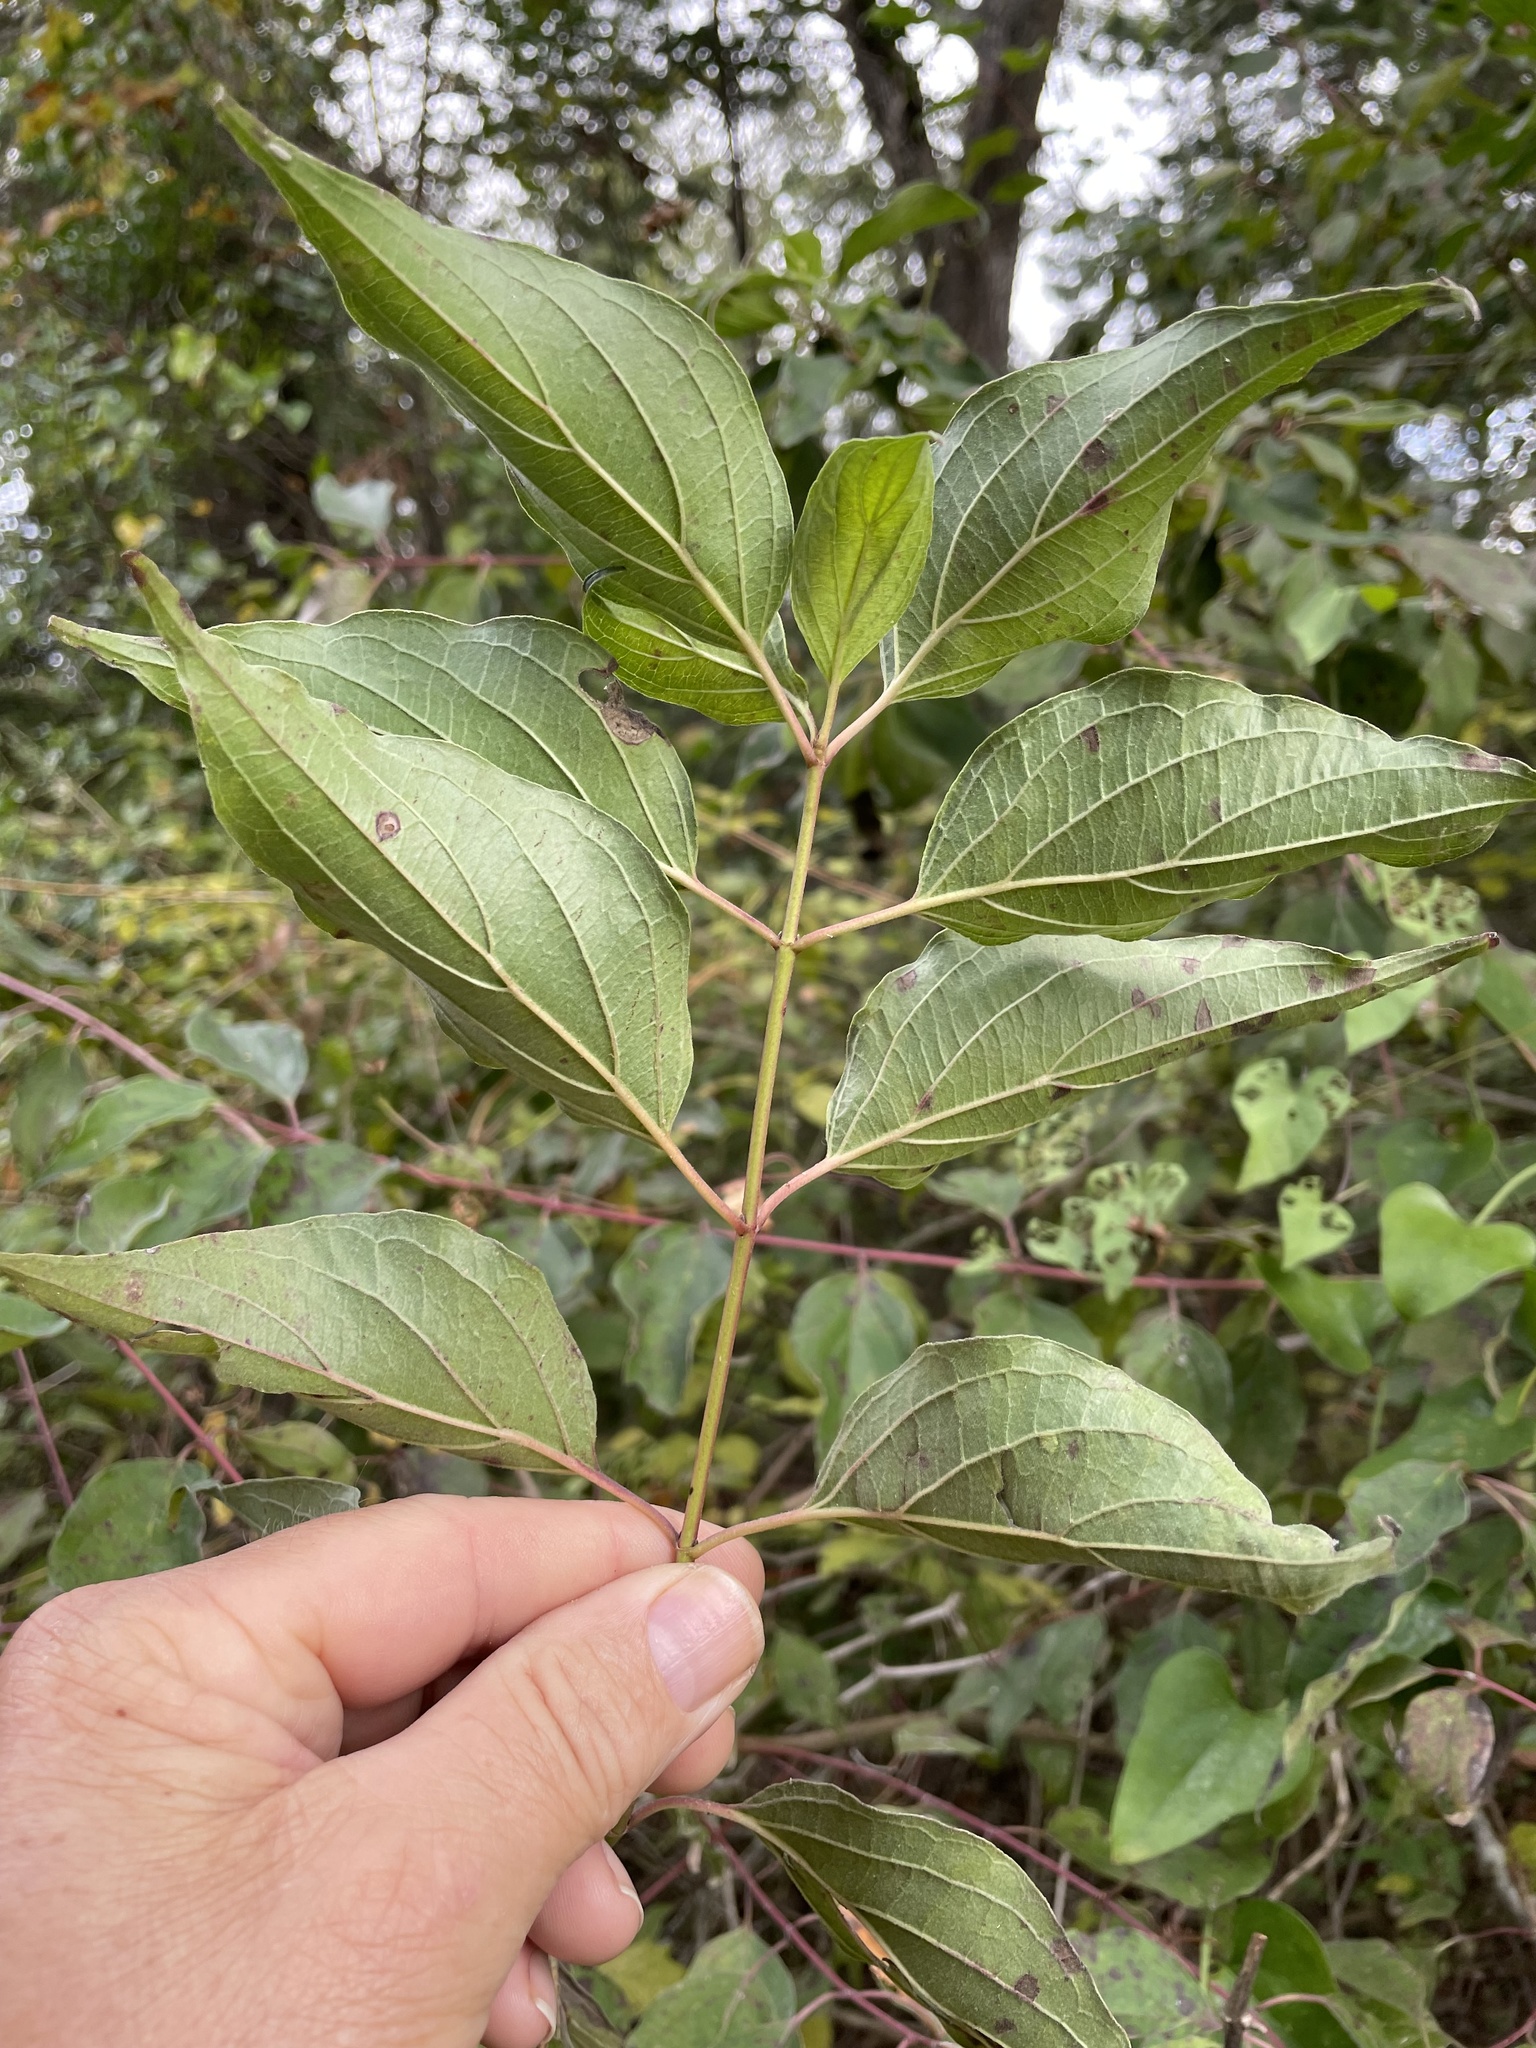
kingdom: Plantae
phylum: Tracheophyta
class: Magnoliopsida
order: Cornales
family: Cornaceae
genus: Cornus
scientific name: Cornus drummondii
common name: Rough-leaf dogwood
